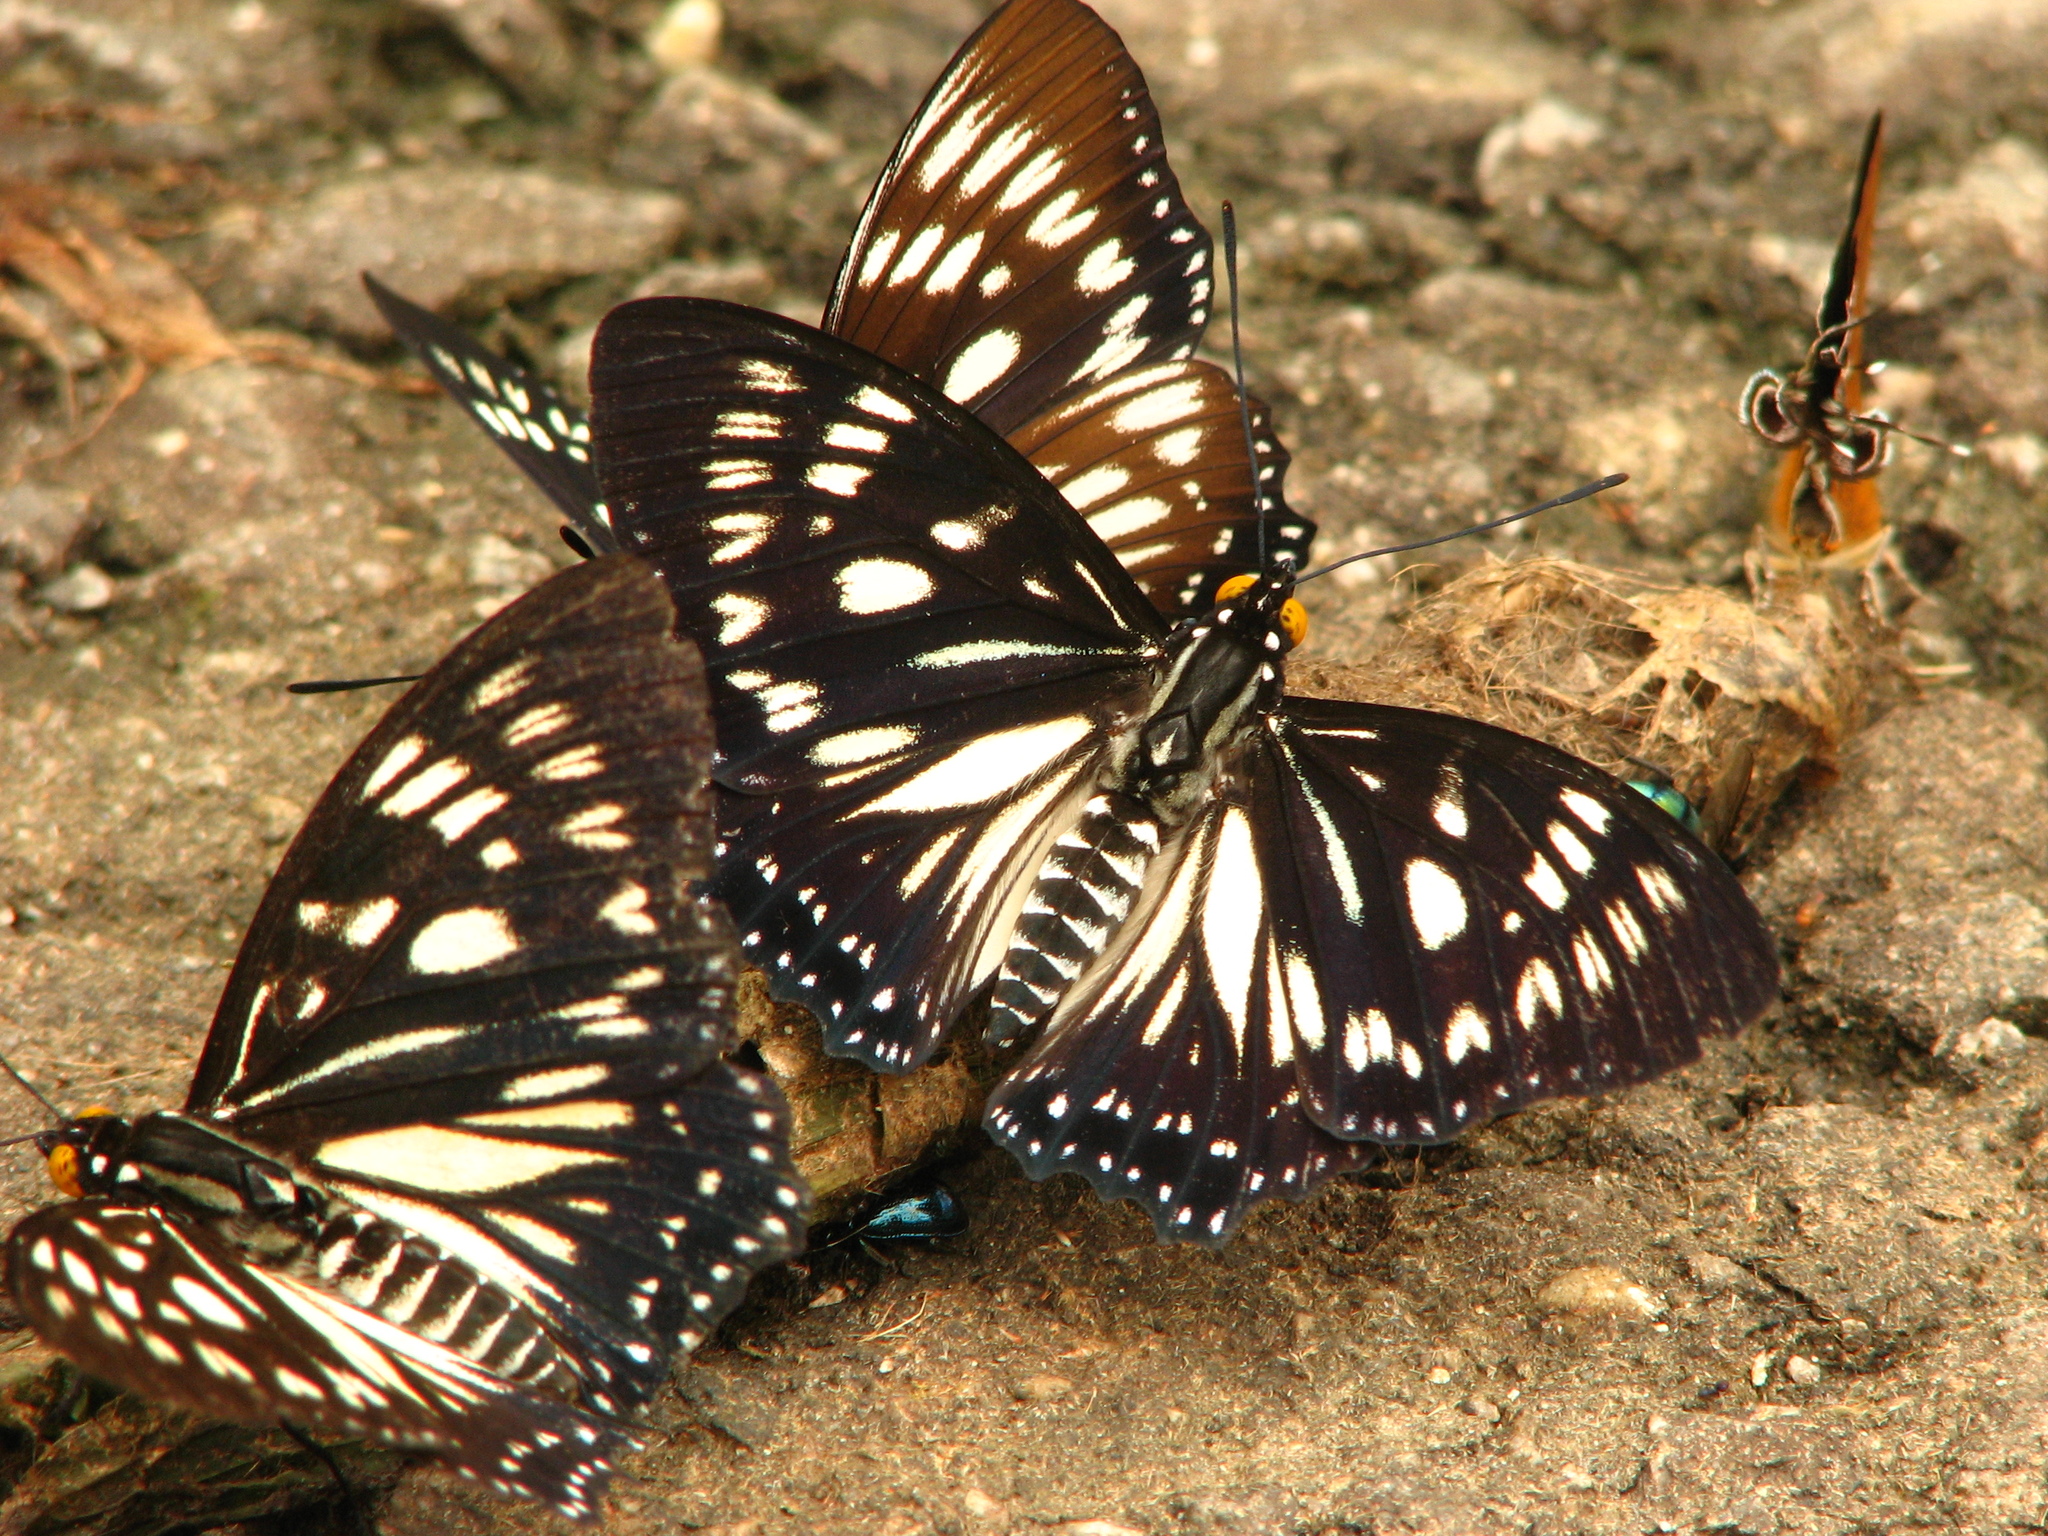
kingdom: Animalia
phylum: Arthropoda
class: Insecta
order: Lepidoptera
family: Nymphalidae
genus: Euripus
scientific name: Euripus nyctelius
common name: Courtesan
